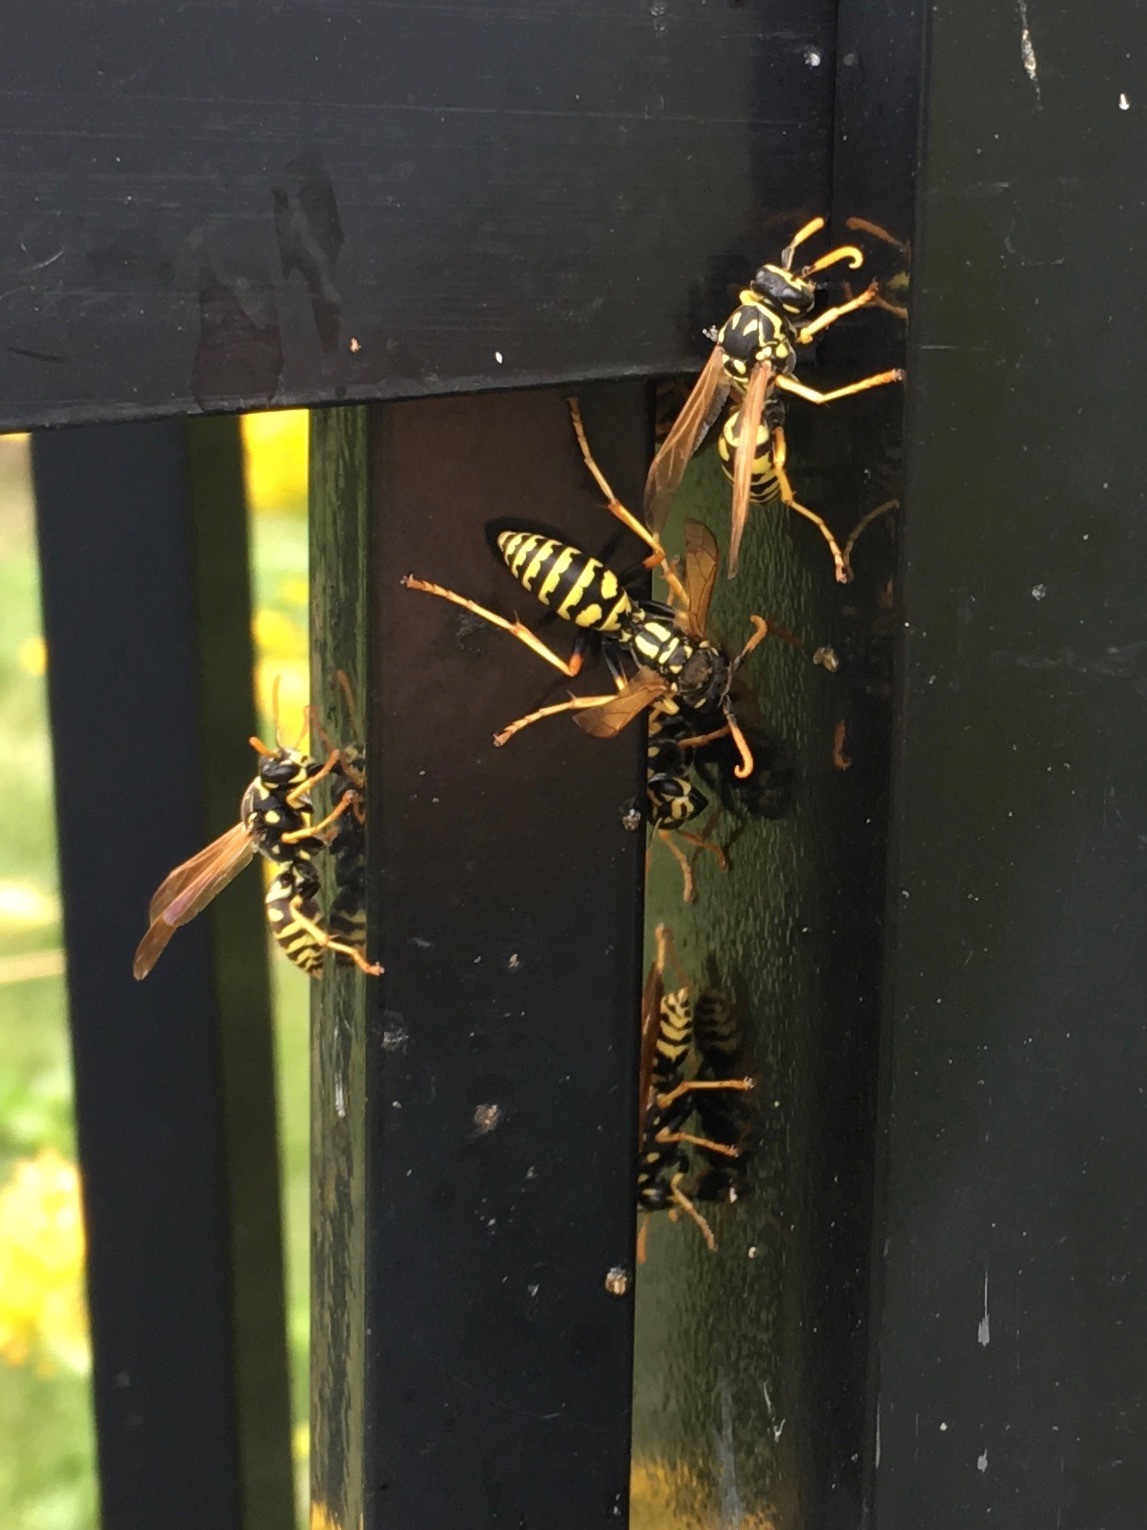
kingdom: Animalia
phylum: Arthropoda
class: Insecta
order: Hymenoptera
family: Eumenidae
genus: Polistes
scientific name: Polistes dominula
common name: Paper wasp
